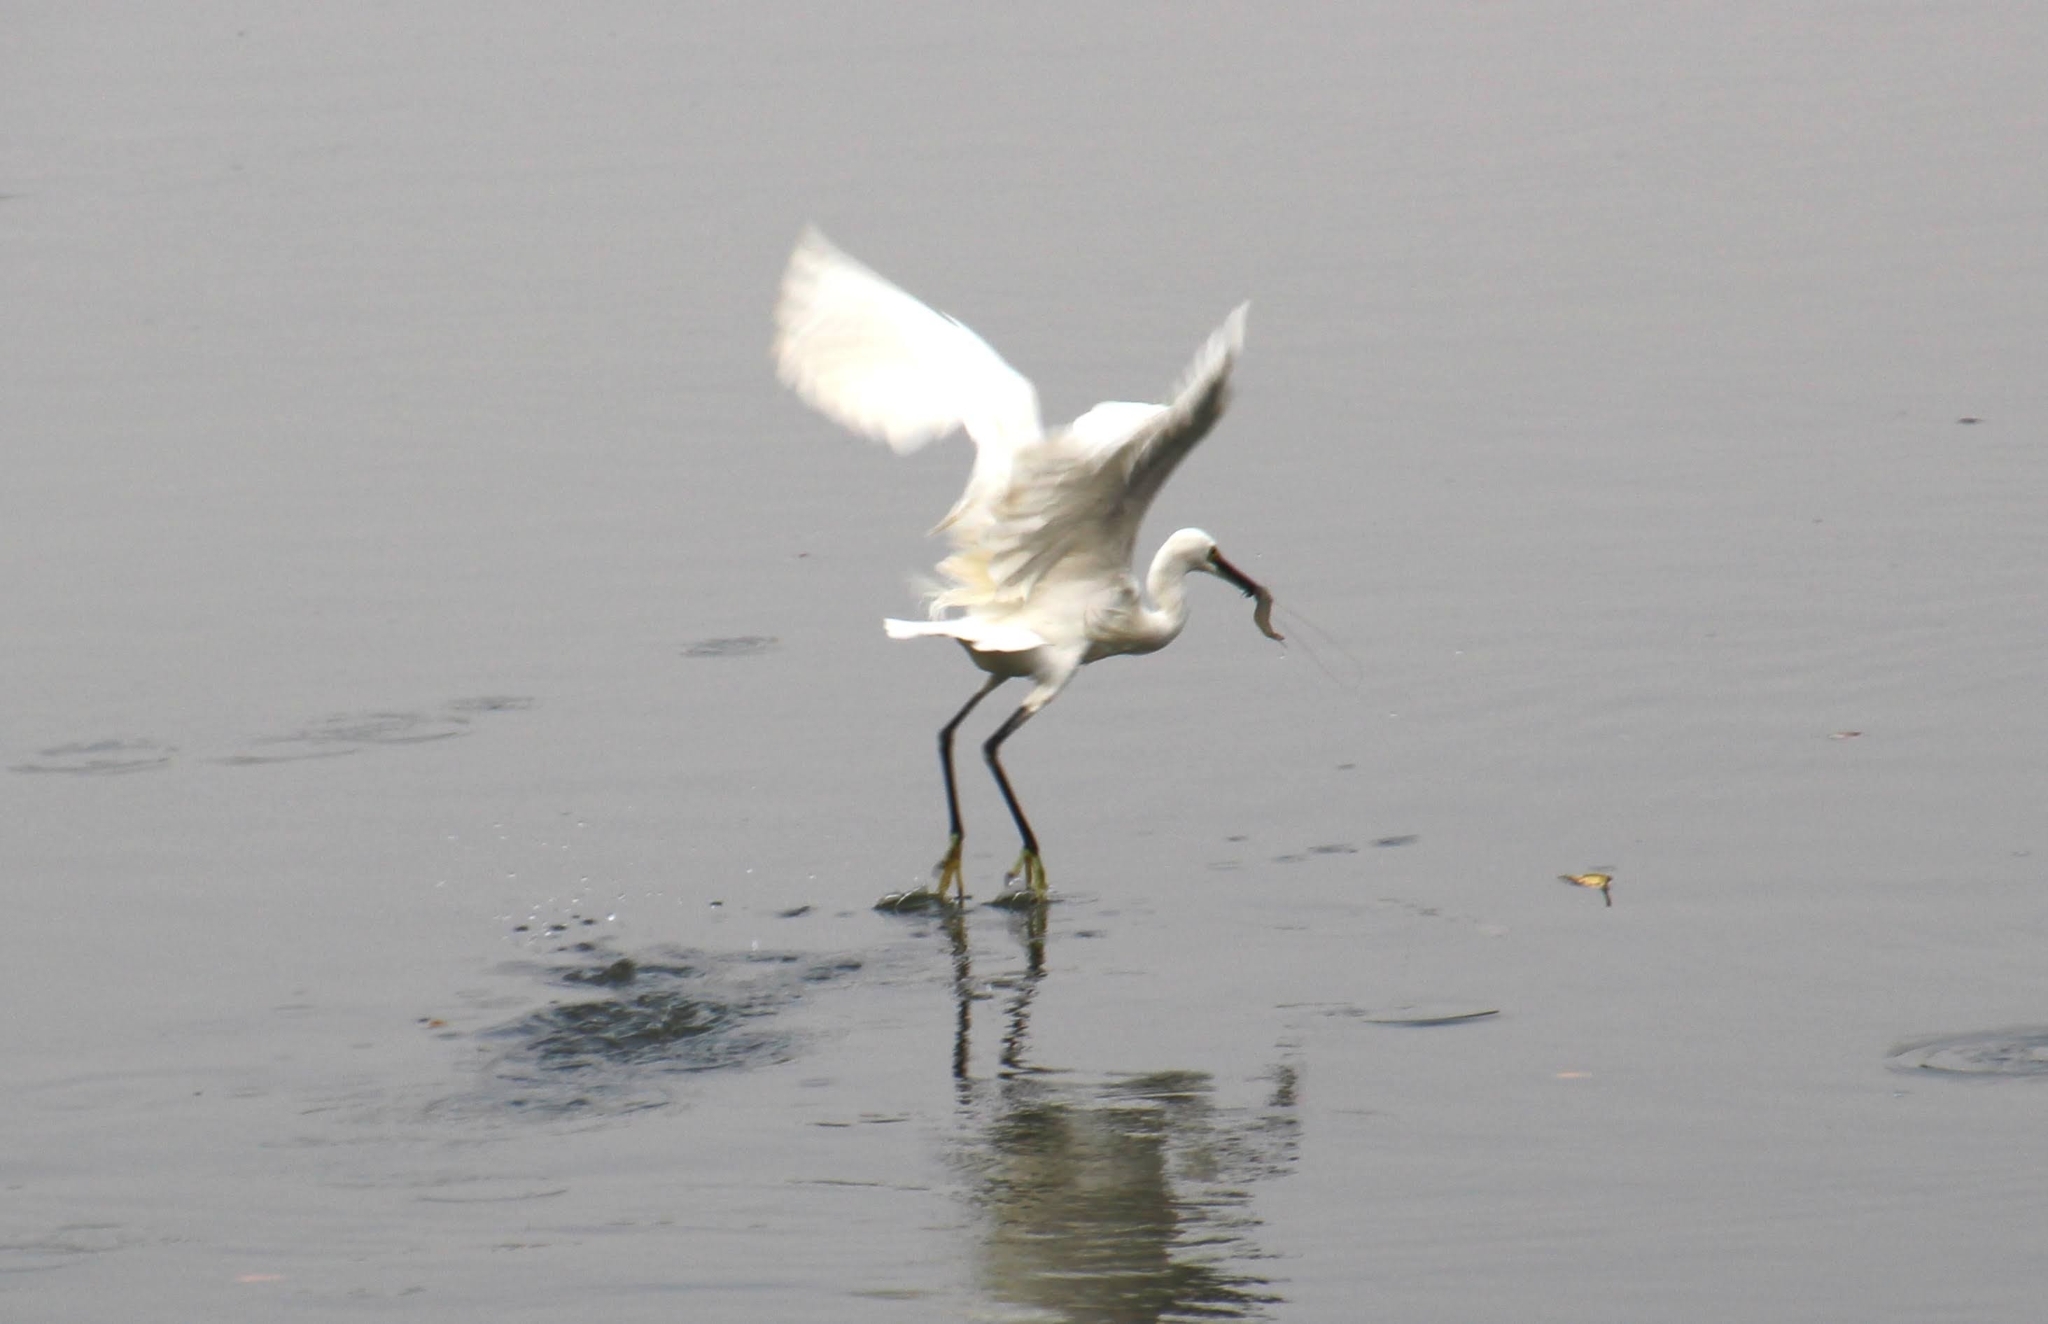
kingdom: Animalia
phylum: Chordata
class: Aves
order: Pelecaniformes
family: Ardeidae
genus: Egretta
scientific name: Egretta garzetta
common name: Little egret
